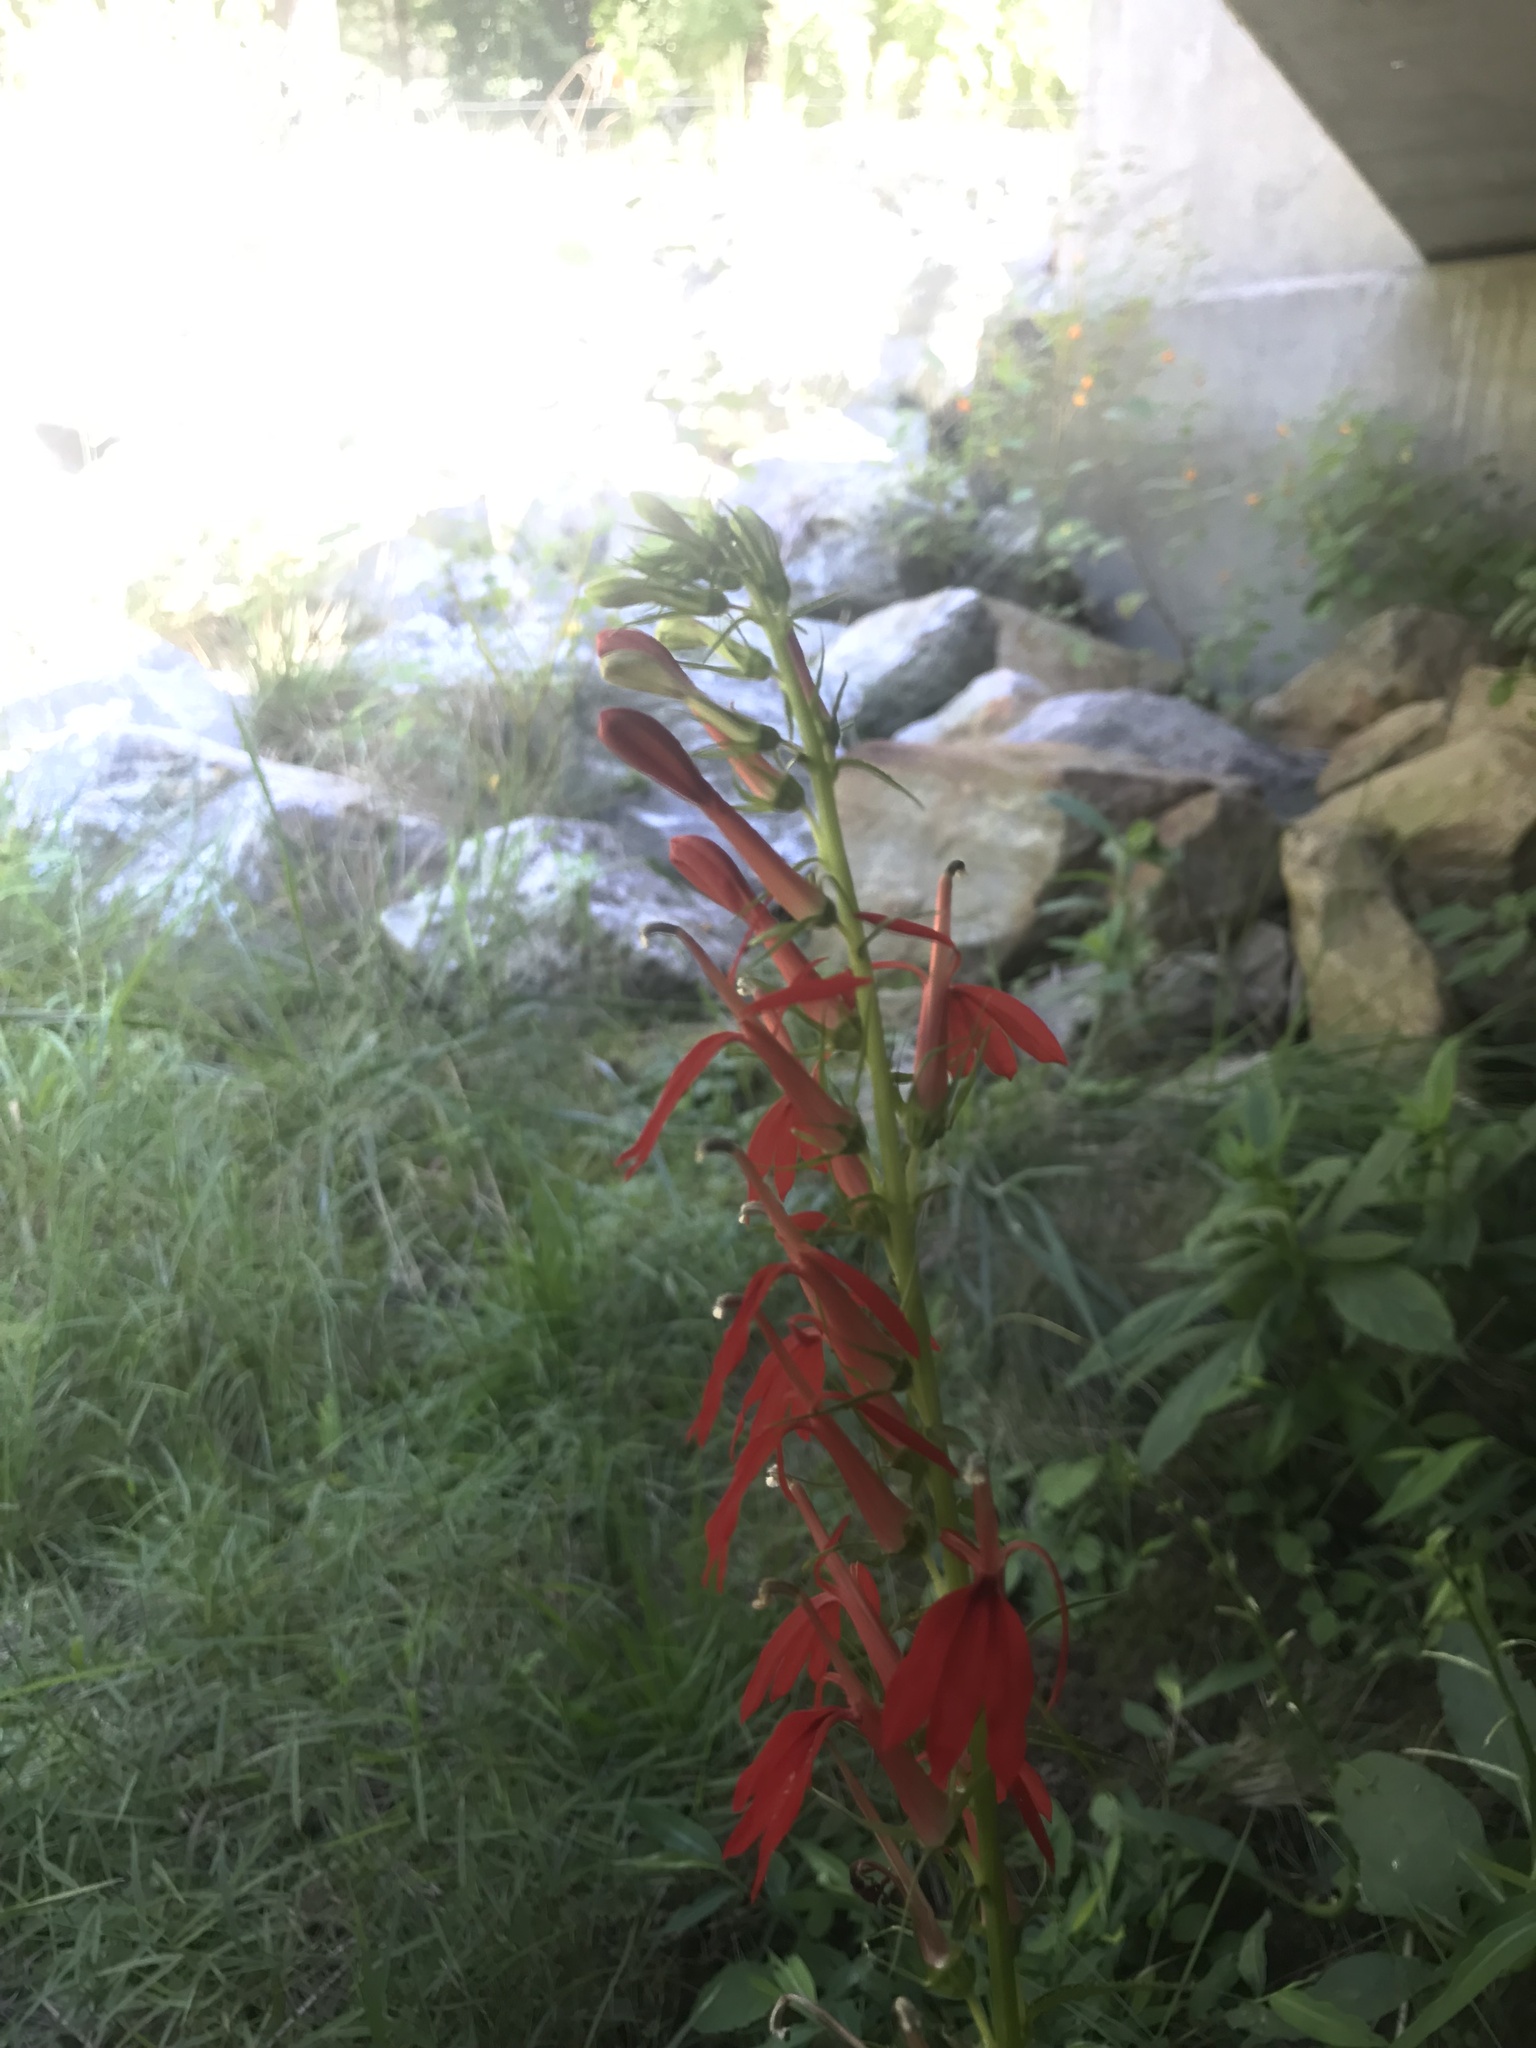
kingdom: Plantae
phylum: Tracheophyta
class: Magnoliopsida
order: Asterales
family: Campanulaceae
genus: Lobelia
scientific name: Lobelia cardinalis
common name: Cardinal flower
